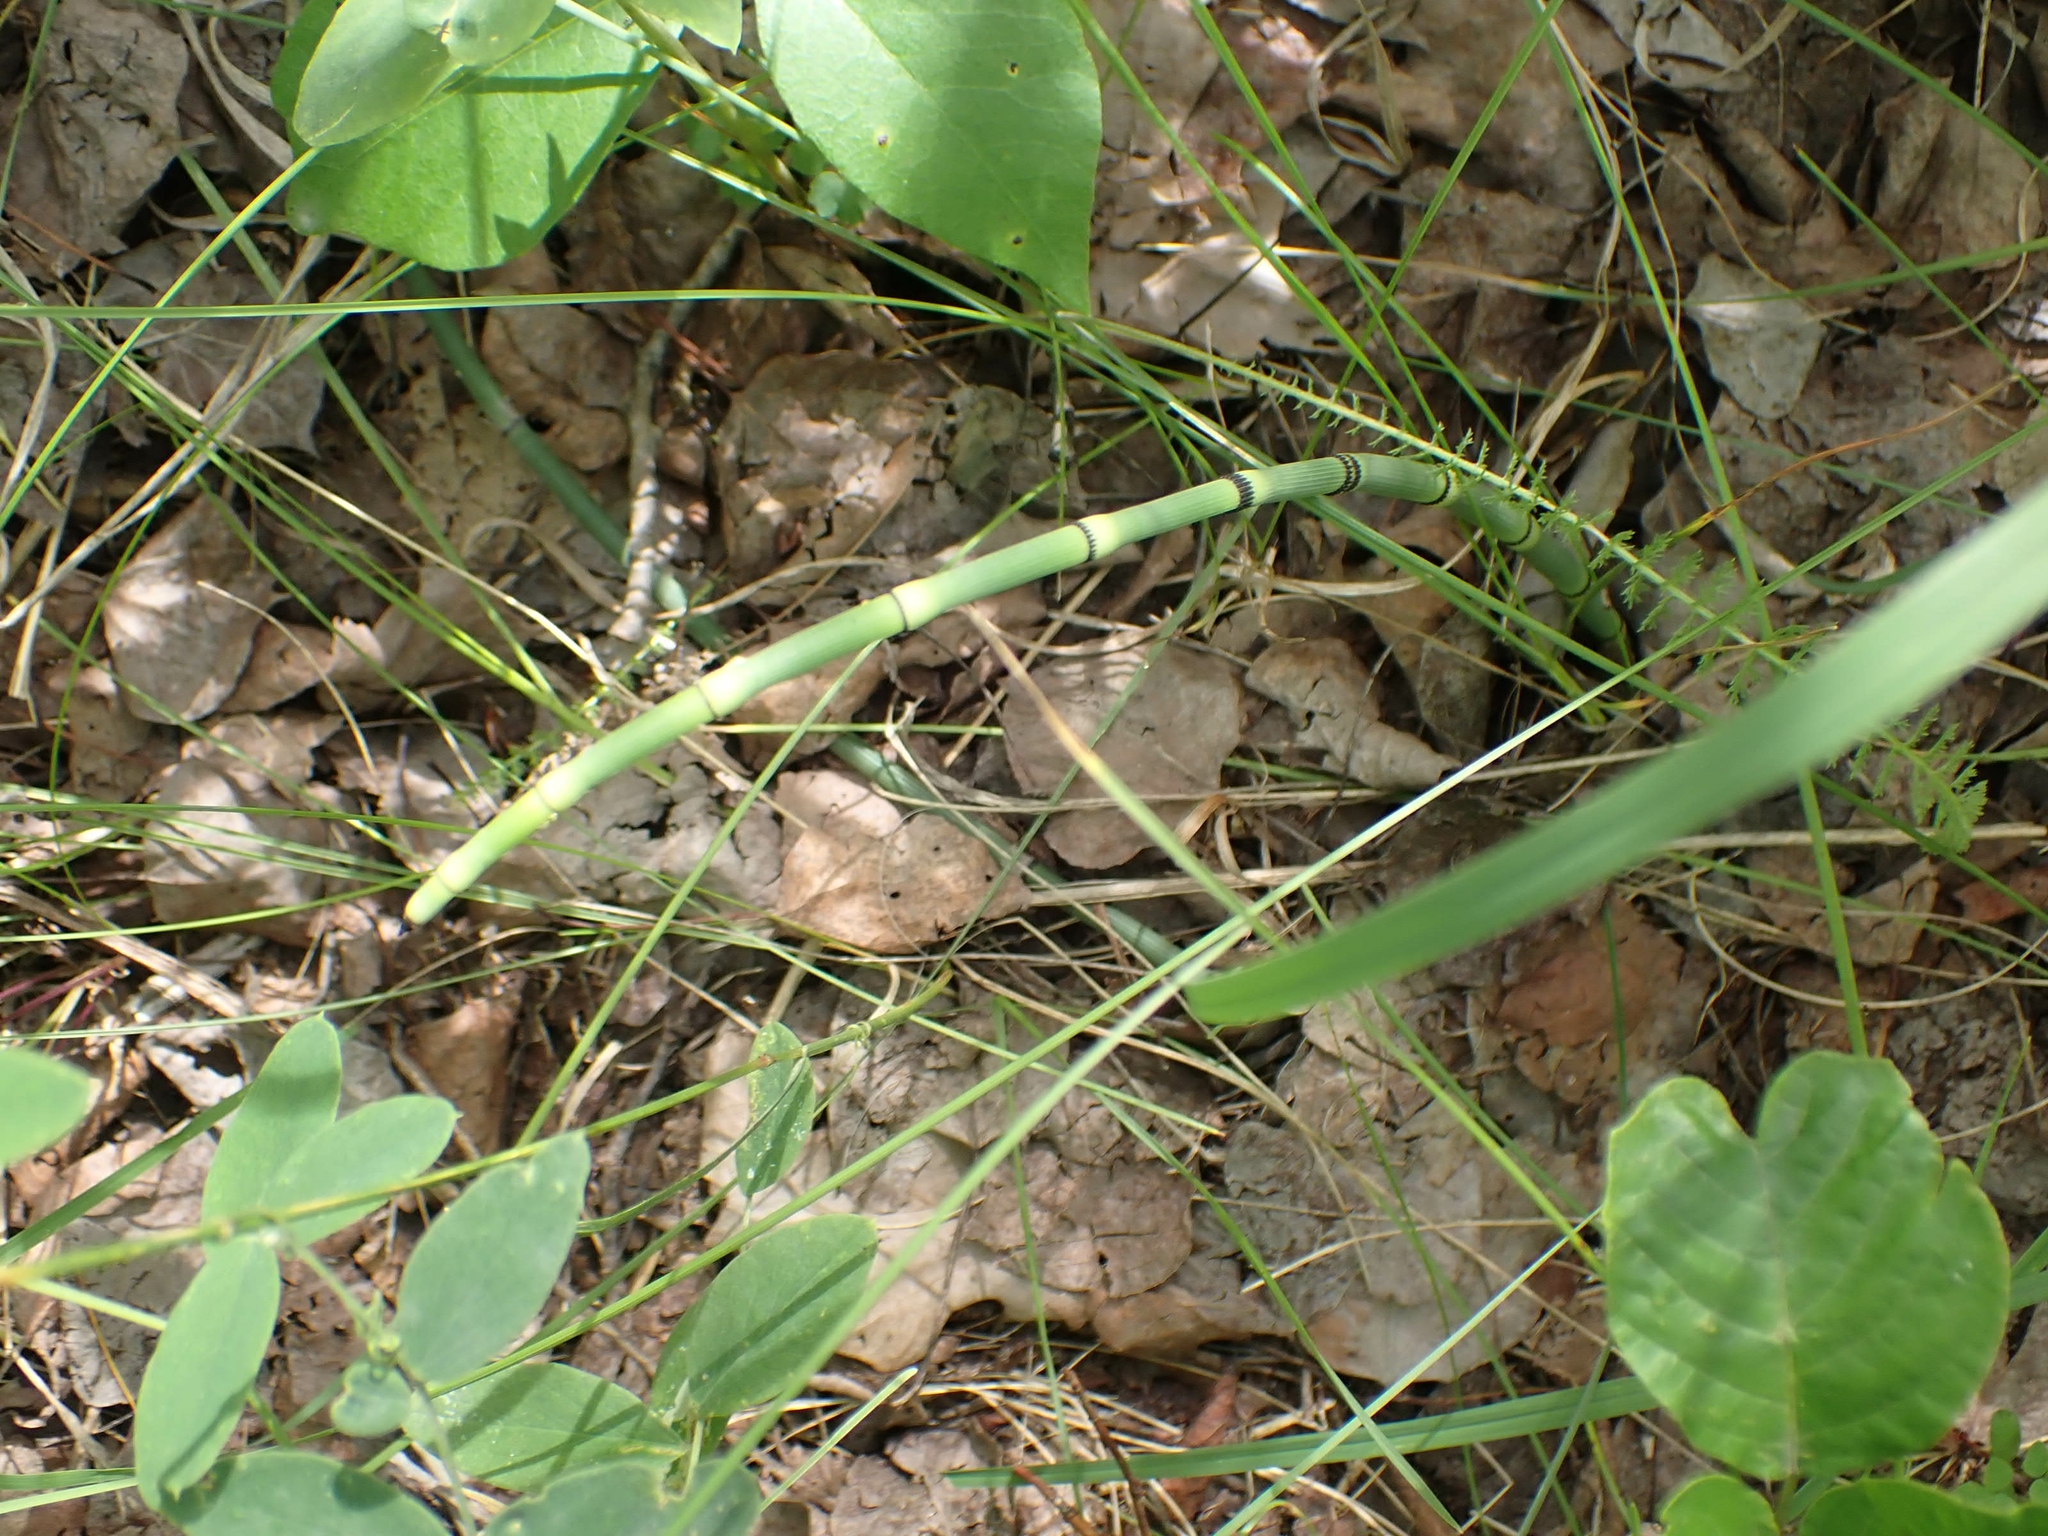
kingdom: Plantae
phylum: Tracheophyta
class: Polypodiopsida
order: Equisetales
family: Equisetaceae
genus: Equisetum
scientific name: Equisetum laevigatum
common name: Smooth scouring-rush
